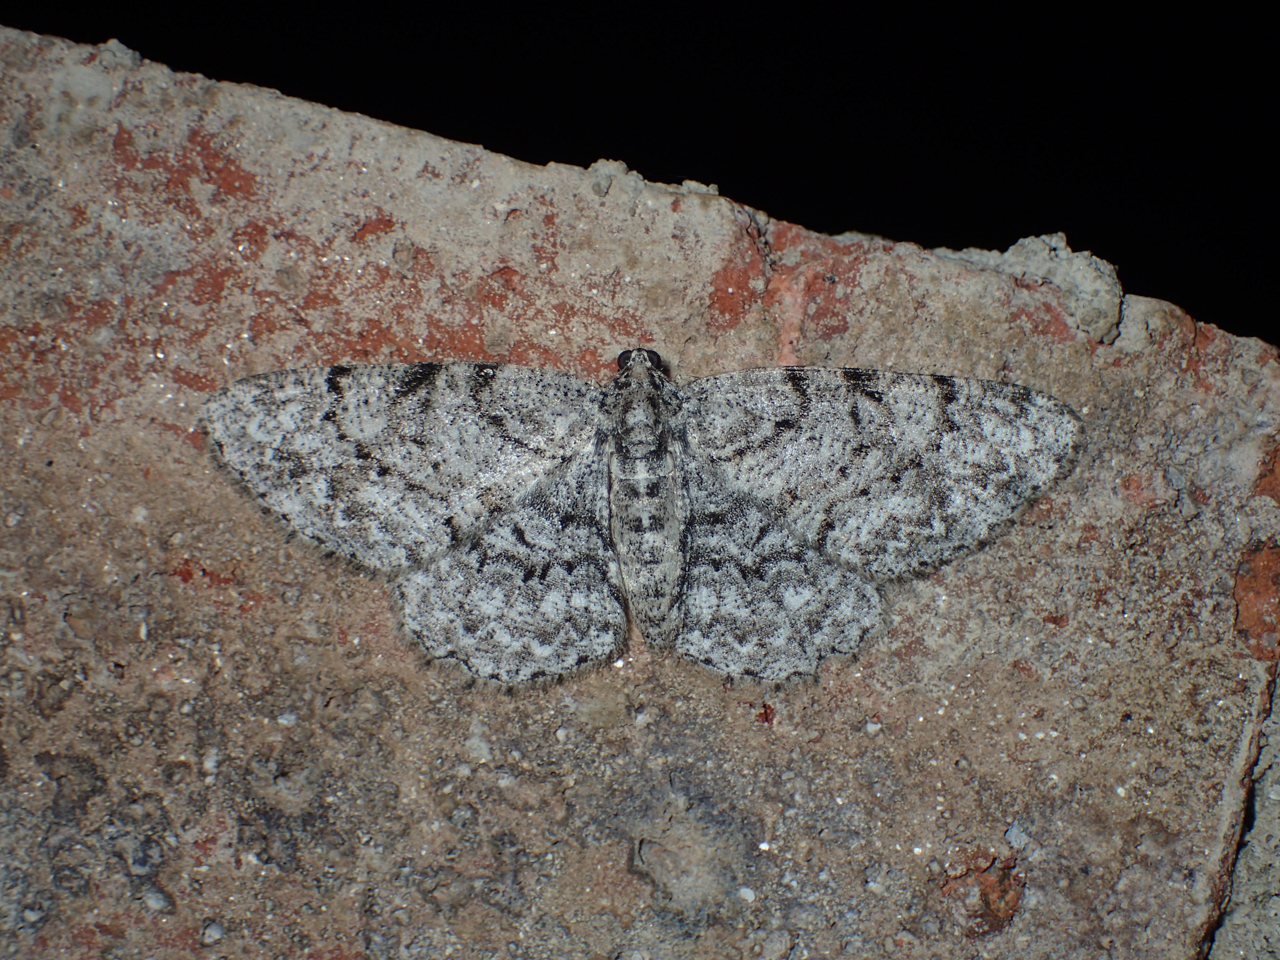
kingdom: Animalia
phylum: Arthropoda
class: Insecta
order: Lepidoptera
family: Geometridae
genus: Protoboarmia
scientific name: Protoboarmia porcelaria
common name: Porcelain gray
